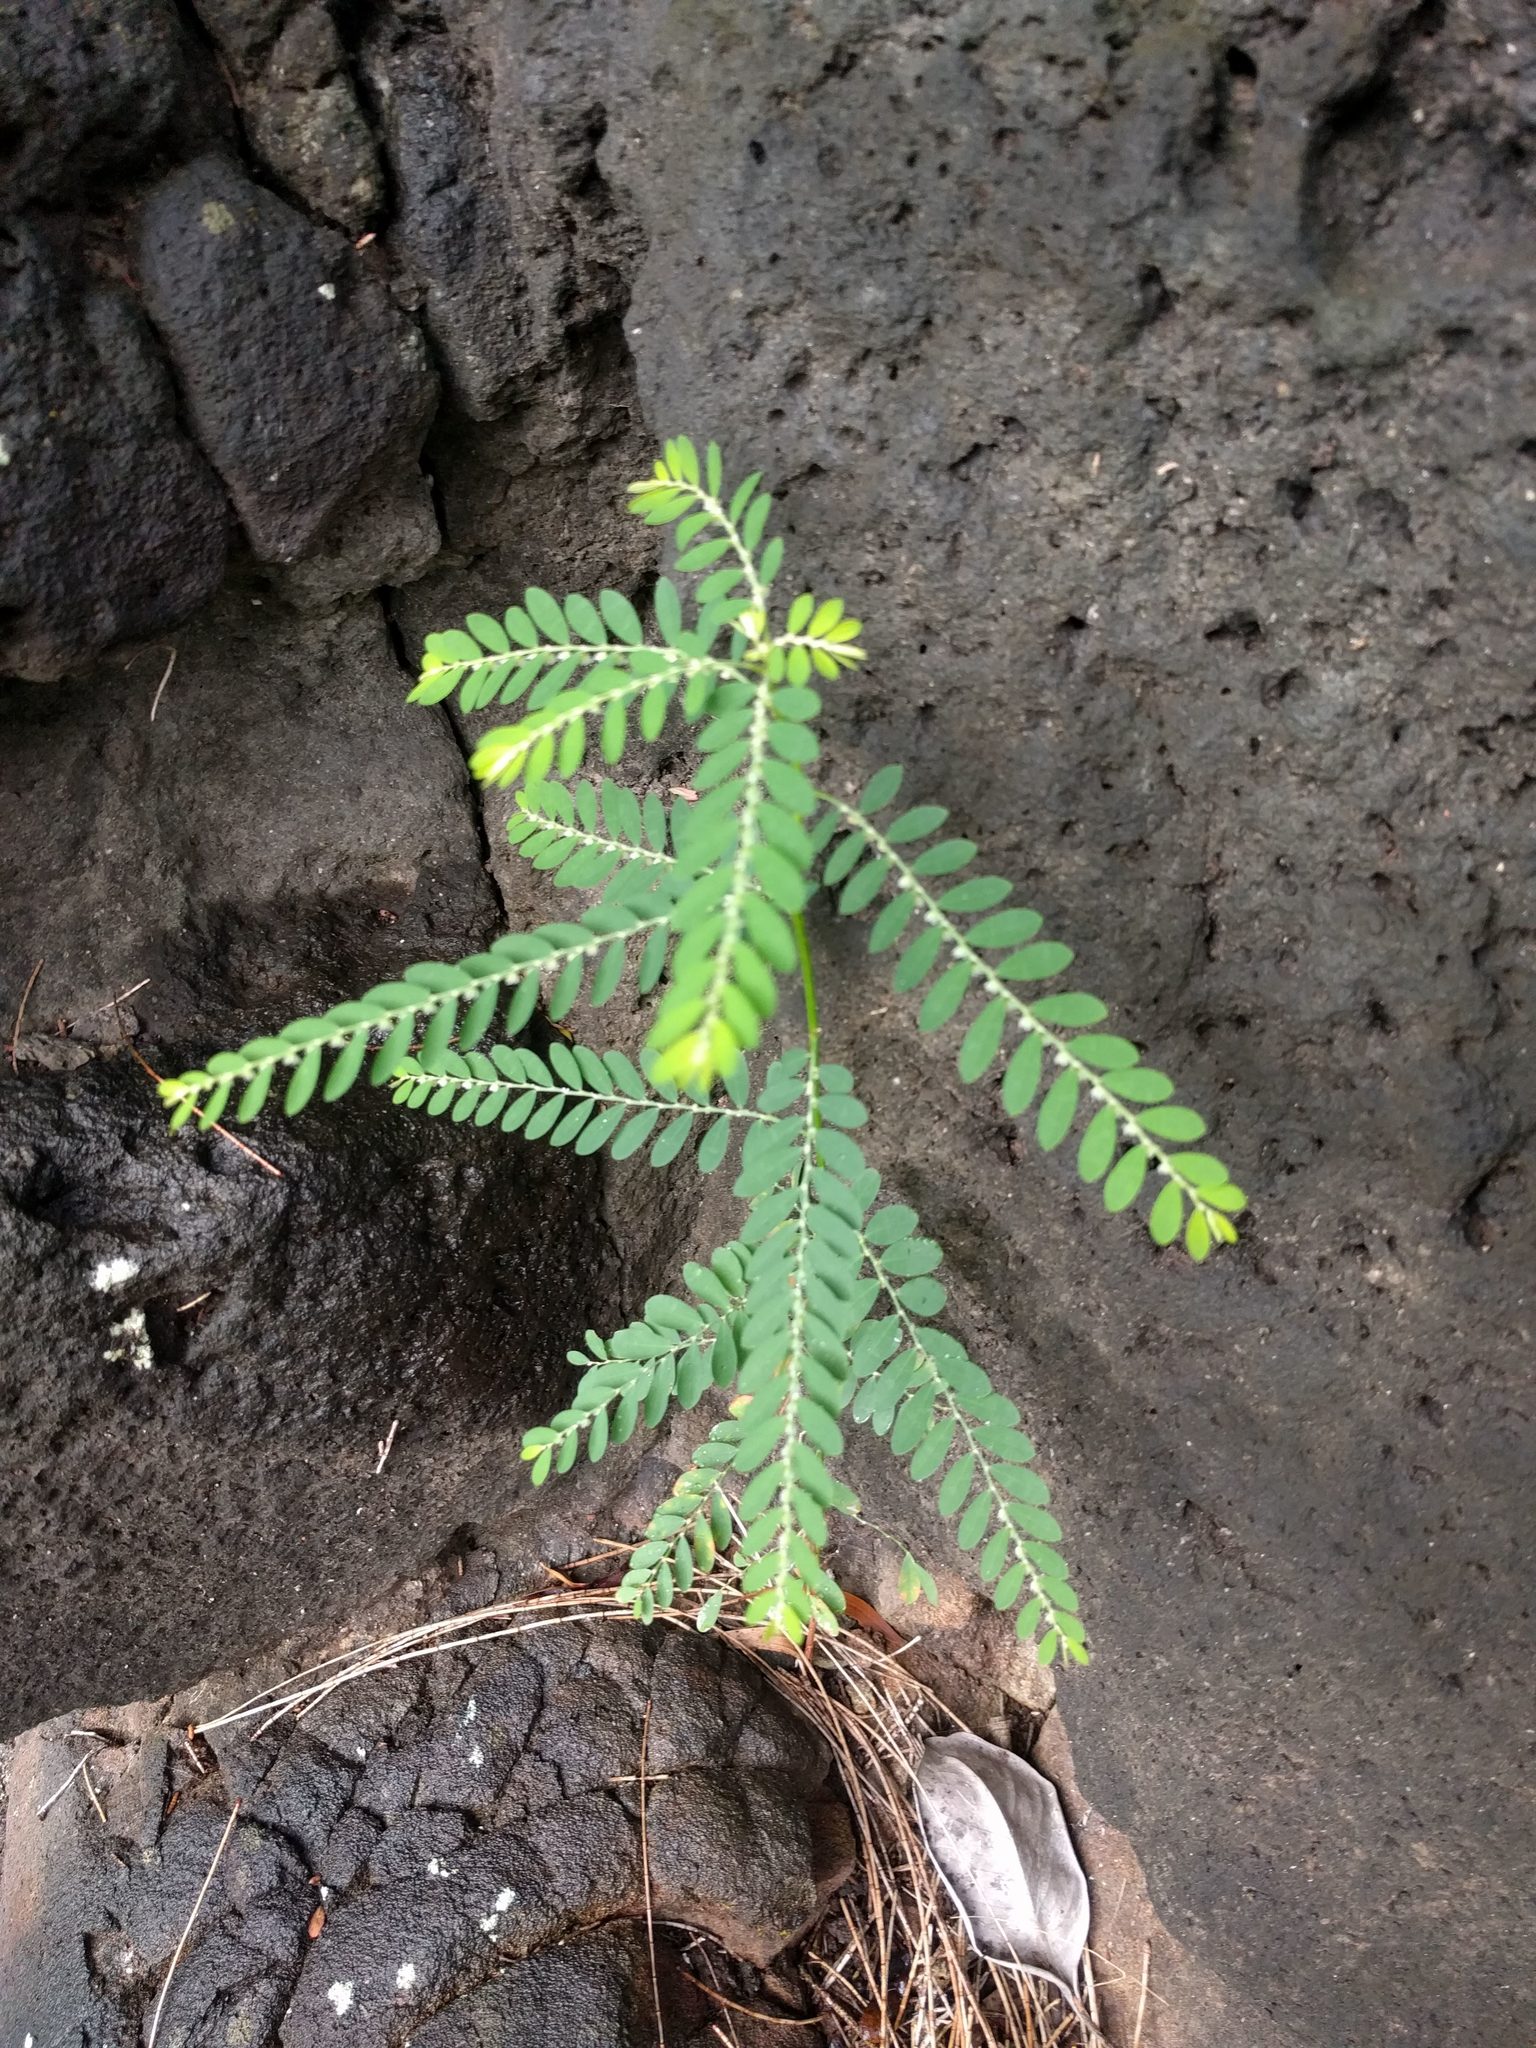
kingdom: Plantae
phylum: Tracheophyta
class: Magnoliopsida
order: Malpighiales
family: Phyllanthaceae
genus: Phyllanthus
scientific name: Phyllanthus debilis
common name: Niruri
